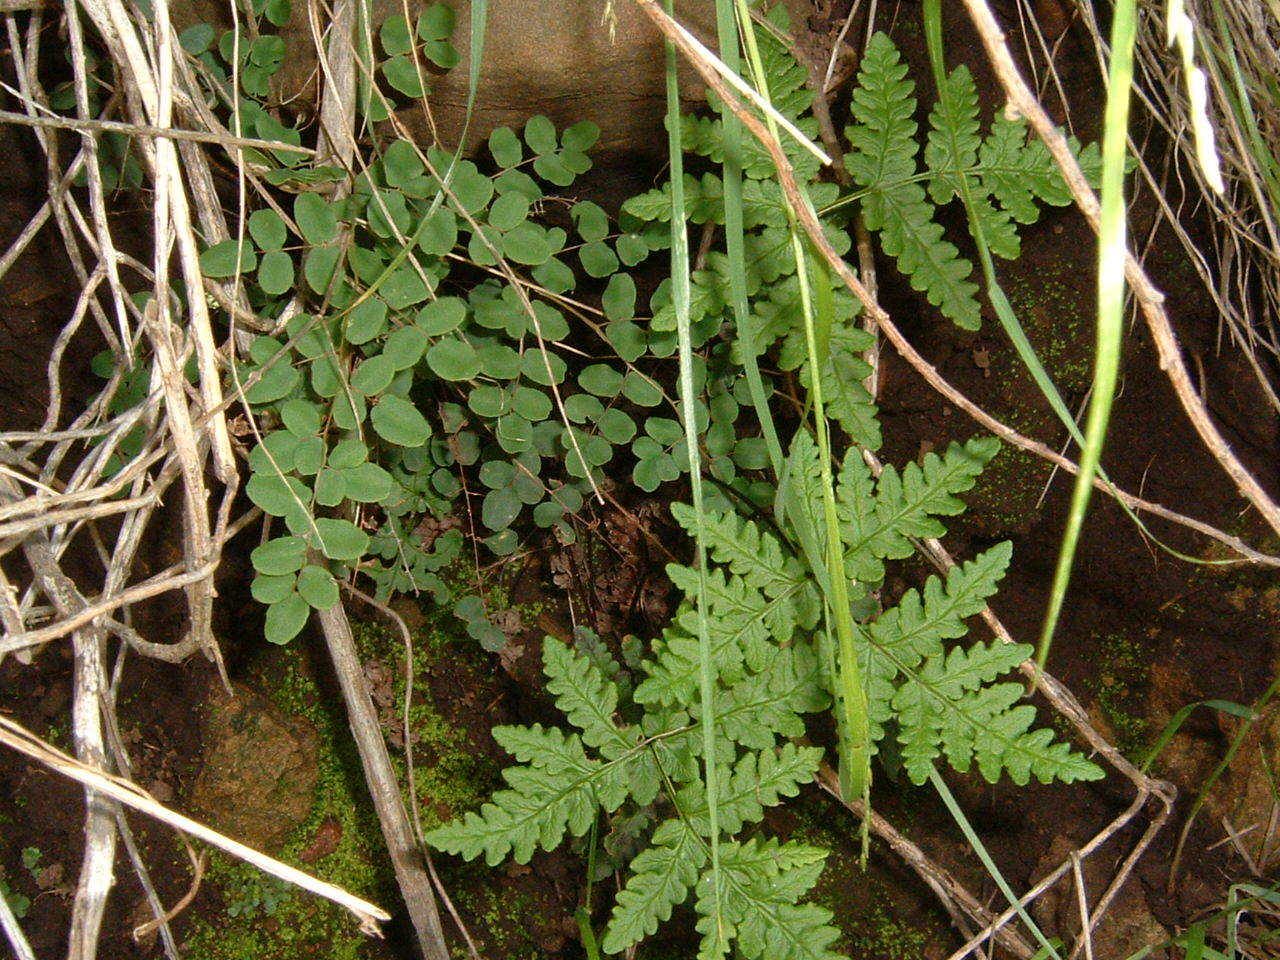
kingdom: Plantae
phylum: Tracheophyta
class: Polypodiopsida
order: Polypodiales
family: Pteridaceae
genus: Pellaea
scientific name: Pellaea andromedifolia
